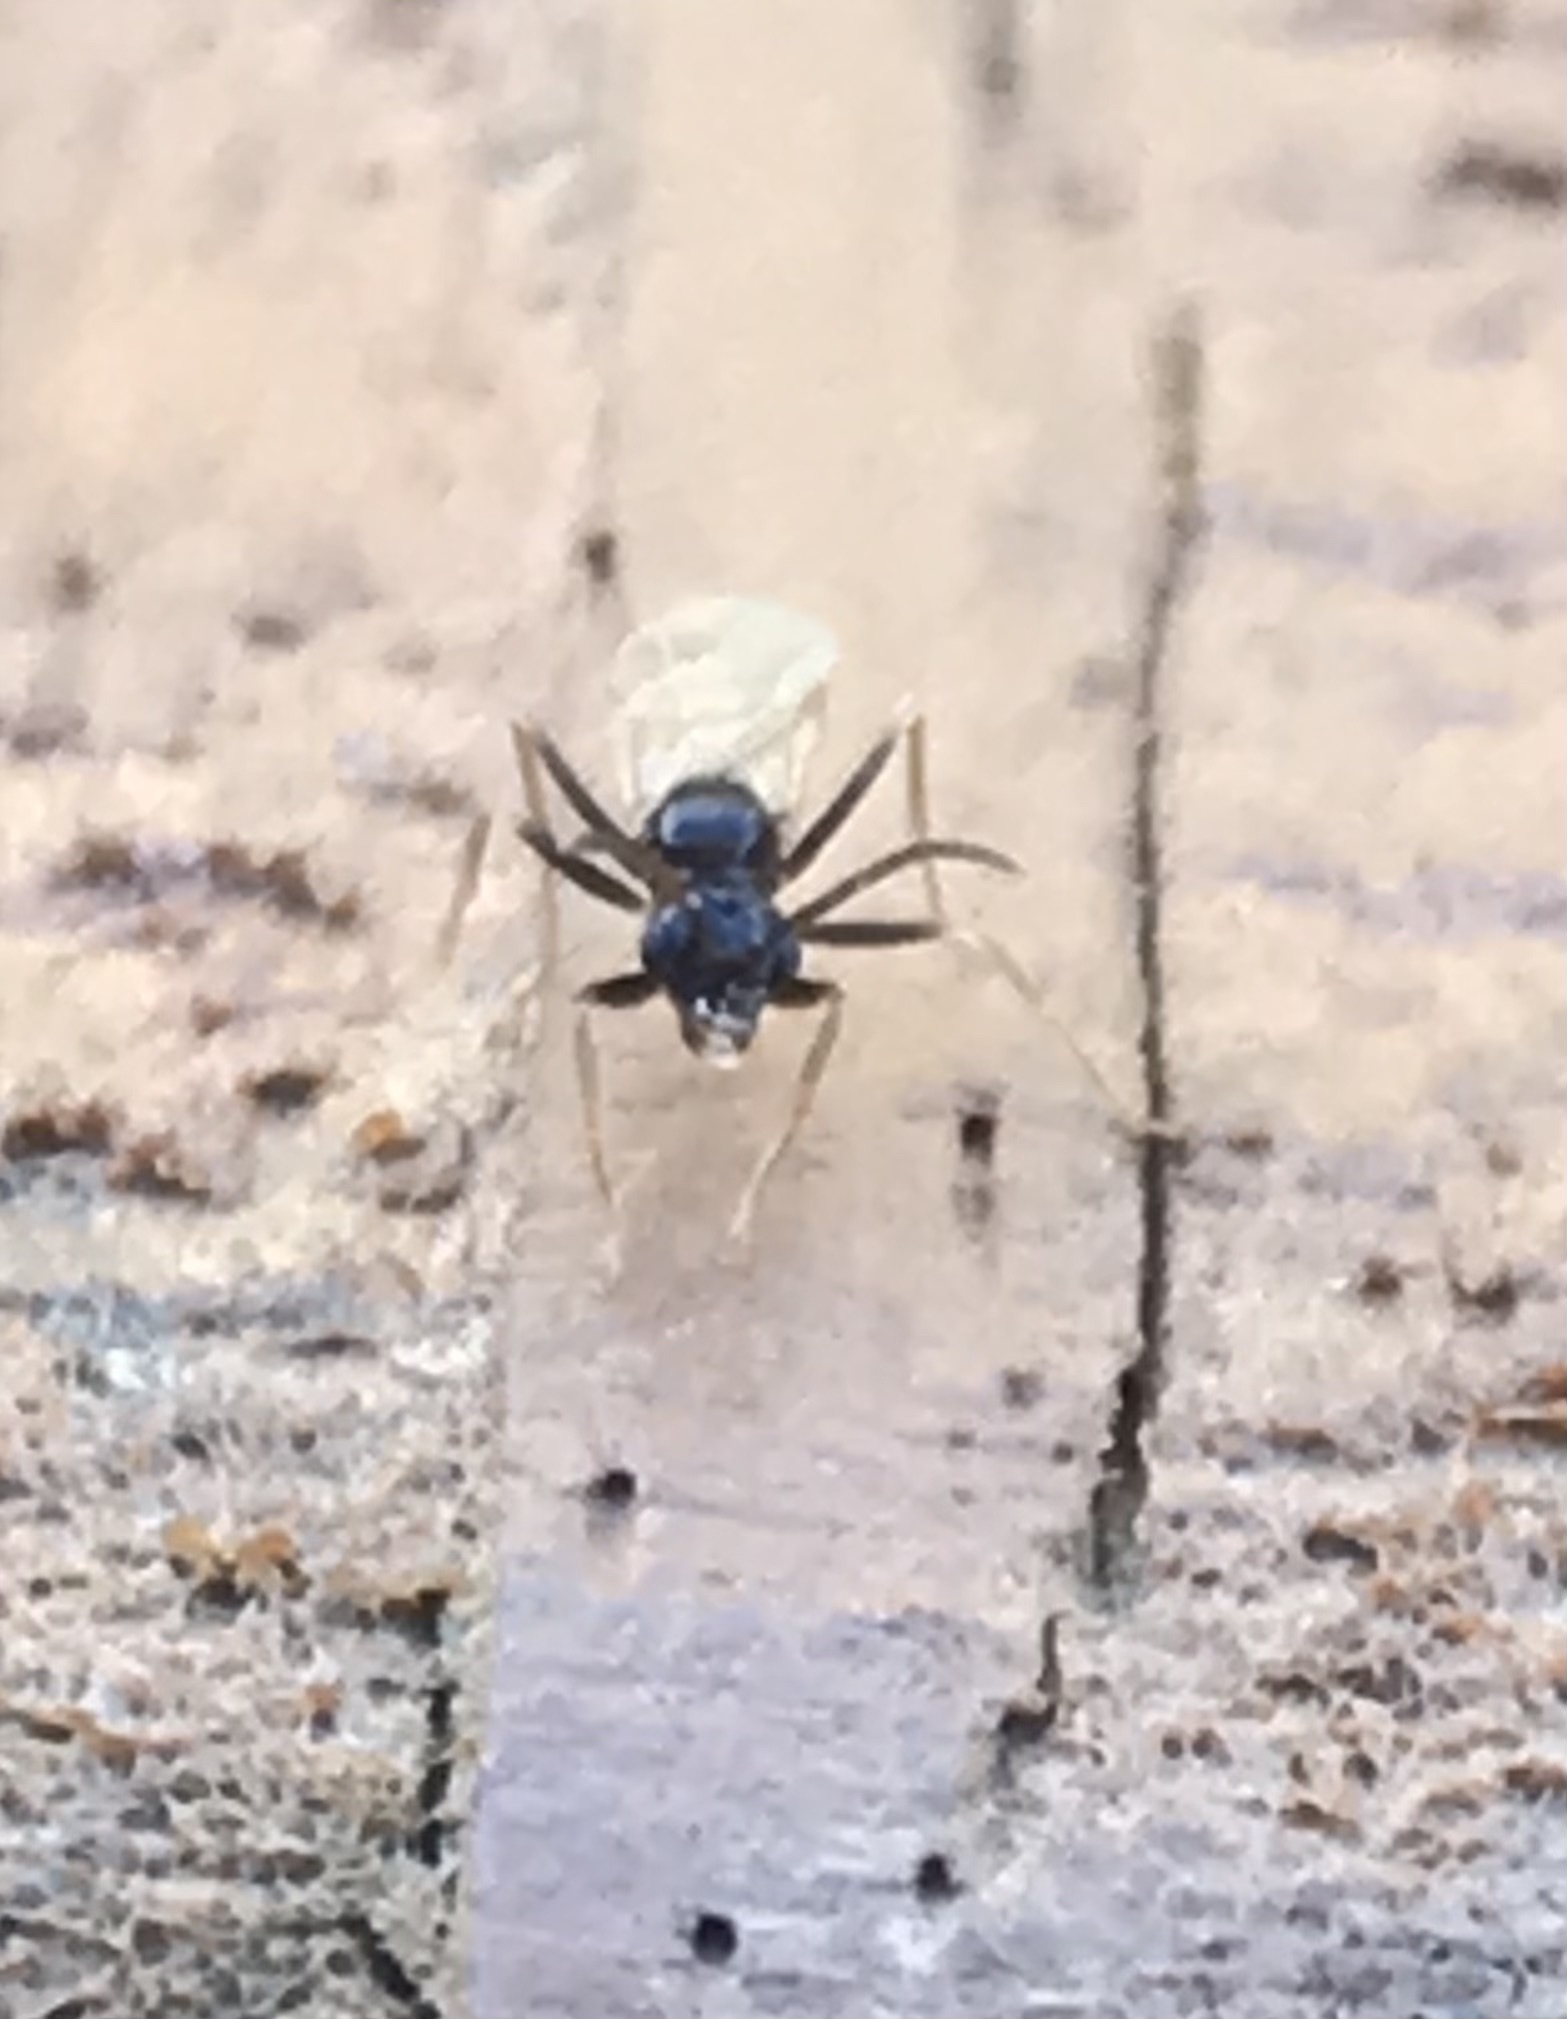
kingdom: Animalia
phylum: Arthropoda
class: Insecta
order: Hymenoptera
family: Formicidae
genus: Prenolepis
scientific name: Prenolepis imparis
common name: Small honey ant
